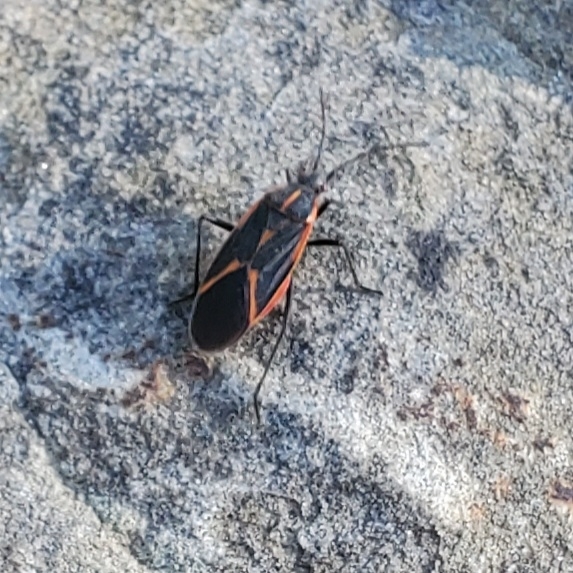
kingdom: Animalia
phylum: Arthropoda
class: Insecta
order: Hemiptera
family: Rhopalidae
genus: Boisea
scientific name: Boisea trivittata
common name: Boxelder bug
